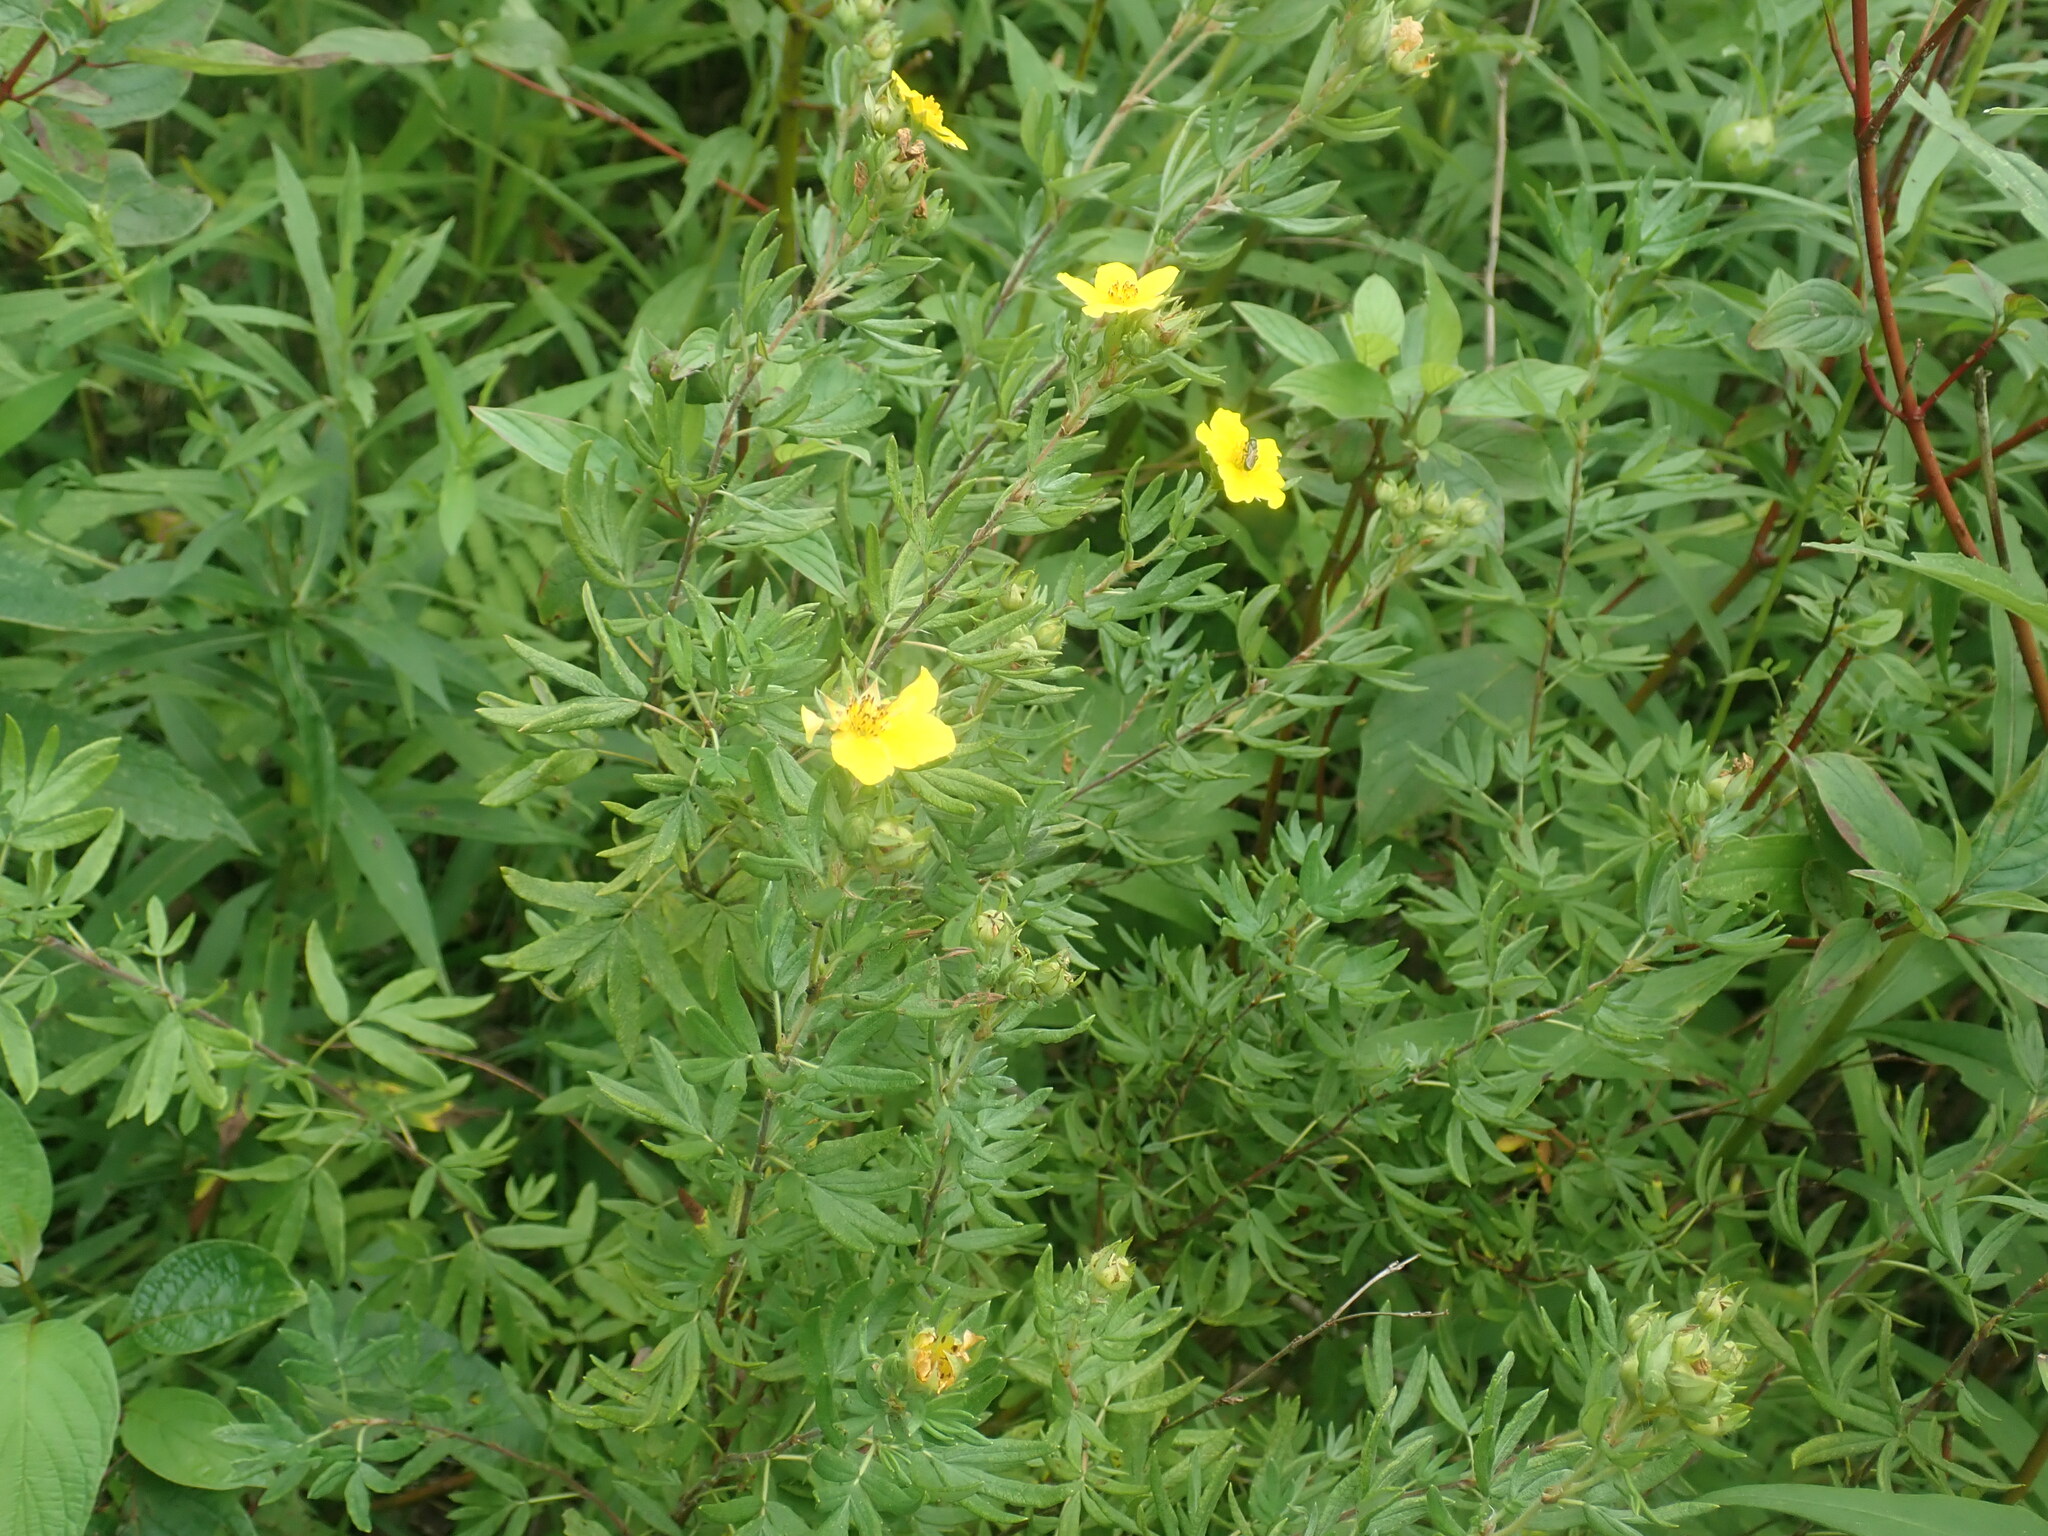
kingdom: Plantae
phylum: Tracheophyta
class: Magnoliopsida
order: Rosales
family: Rosaceae
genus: Dasiphora
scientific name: Dasiphora fruticosa
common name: Shrubby cinquefoil
